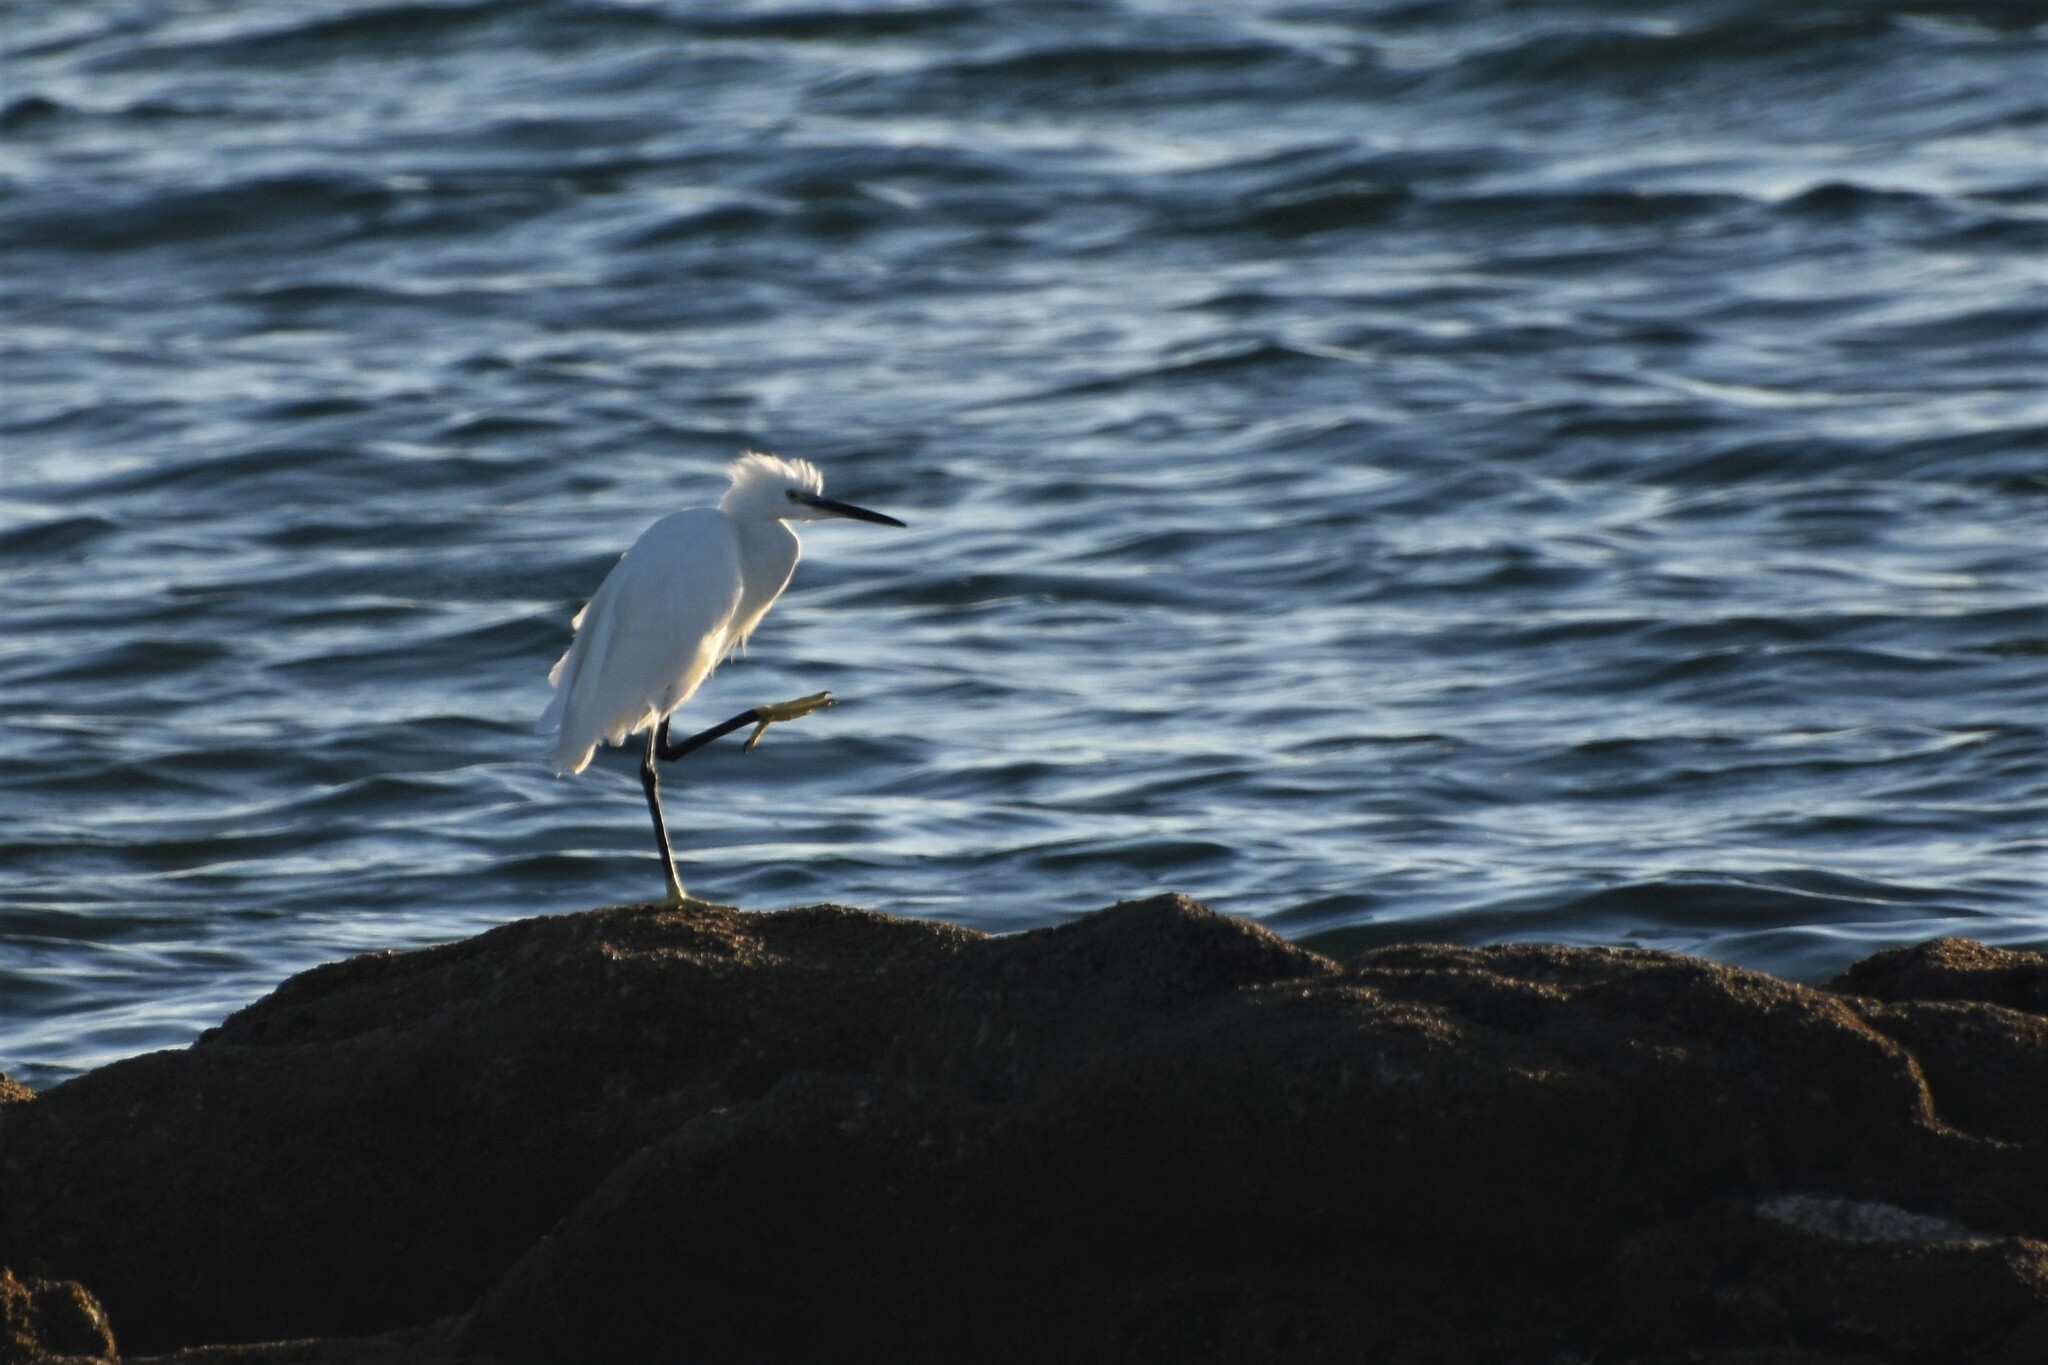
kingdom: Animalia
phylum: Chordata
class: Aves
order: Pelecaniformes
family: Ardeidae
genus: Egretta
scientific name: Egretta garzetta
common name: Little egret
